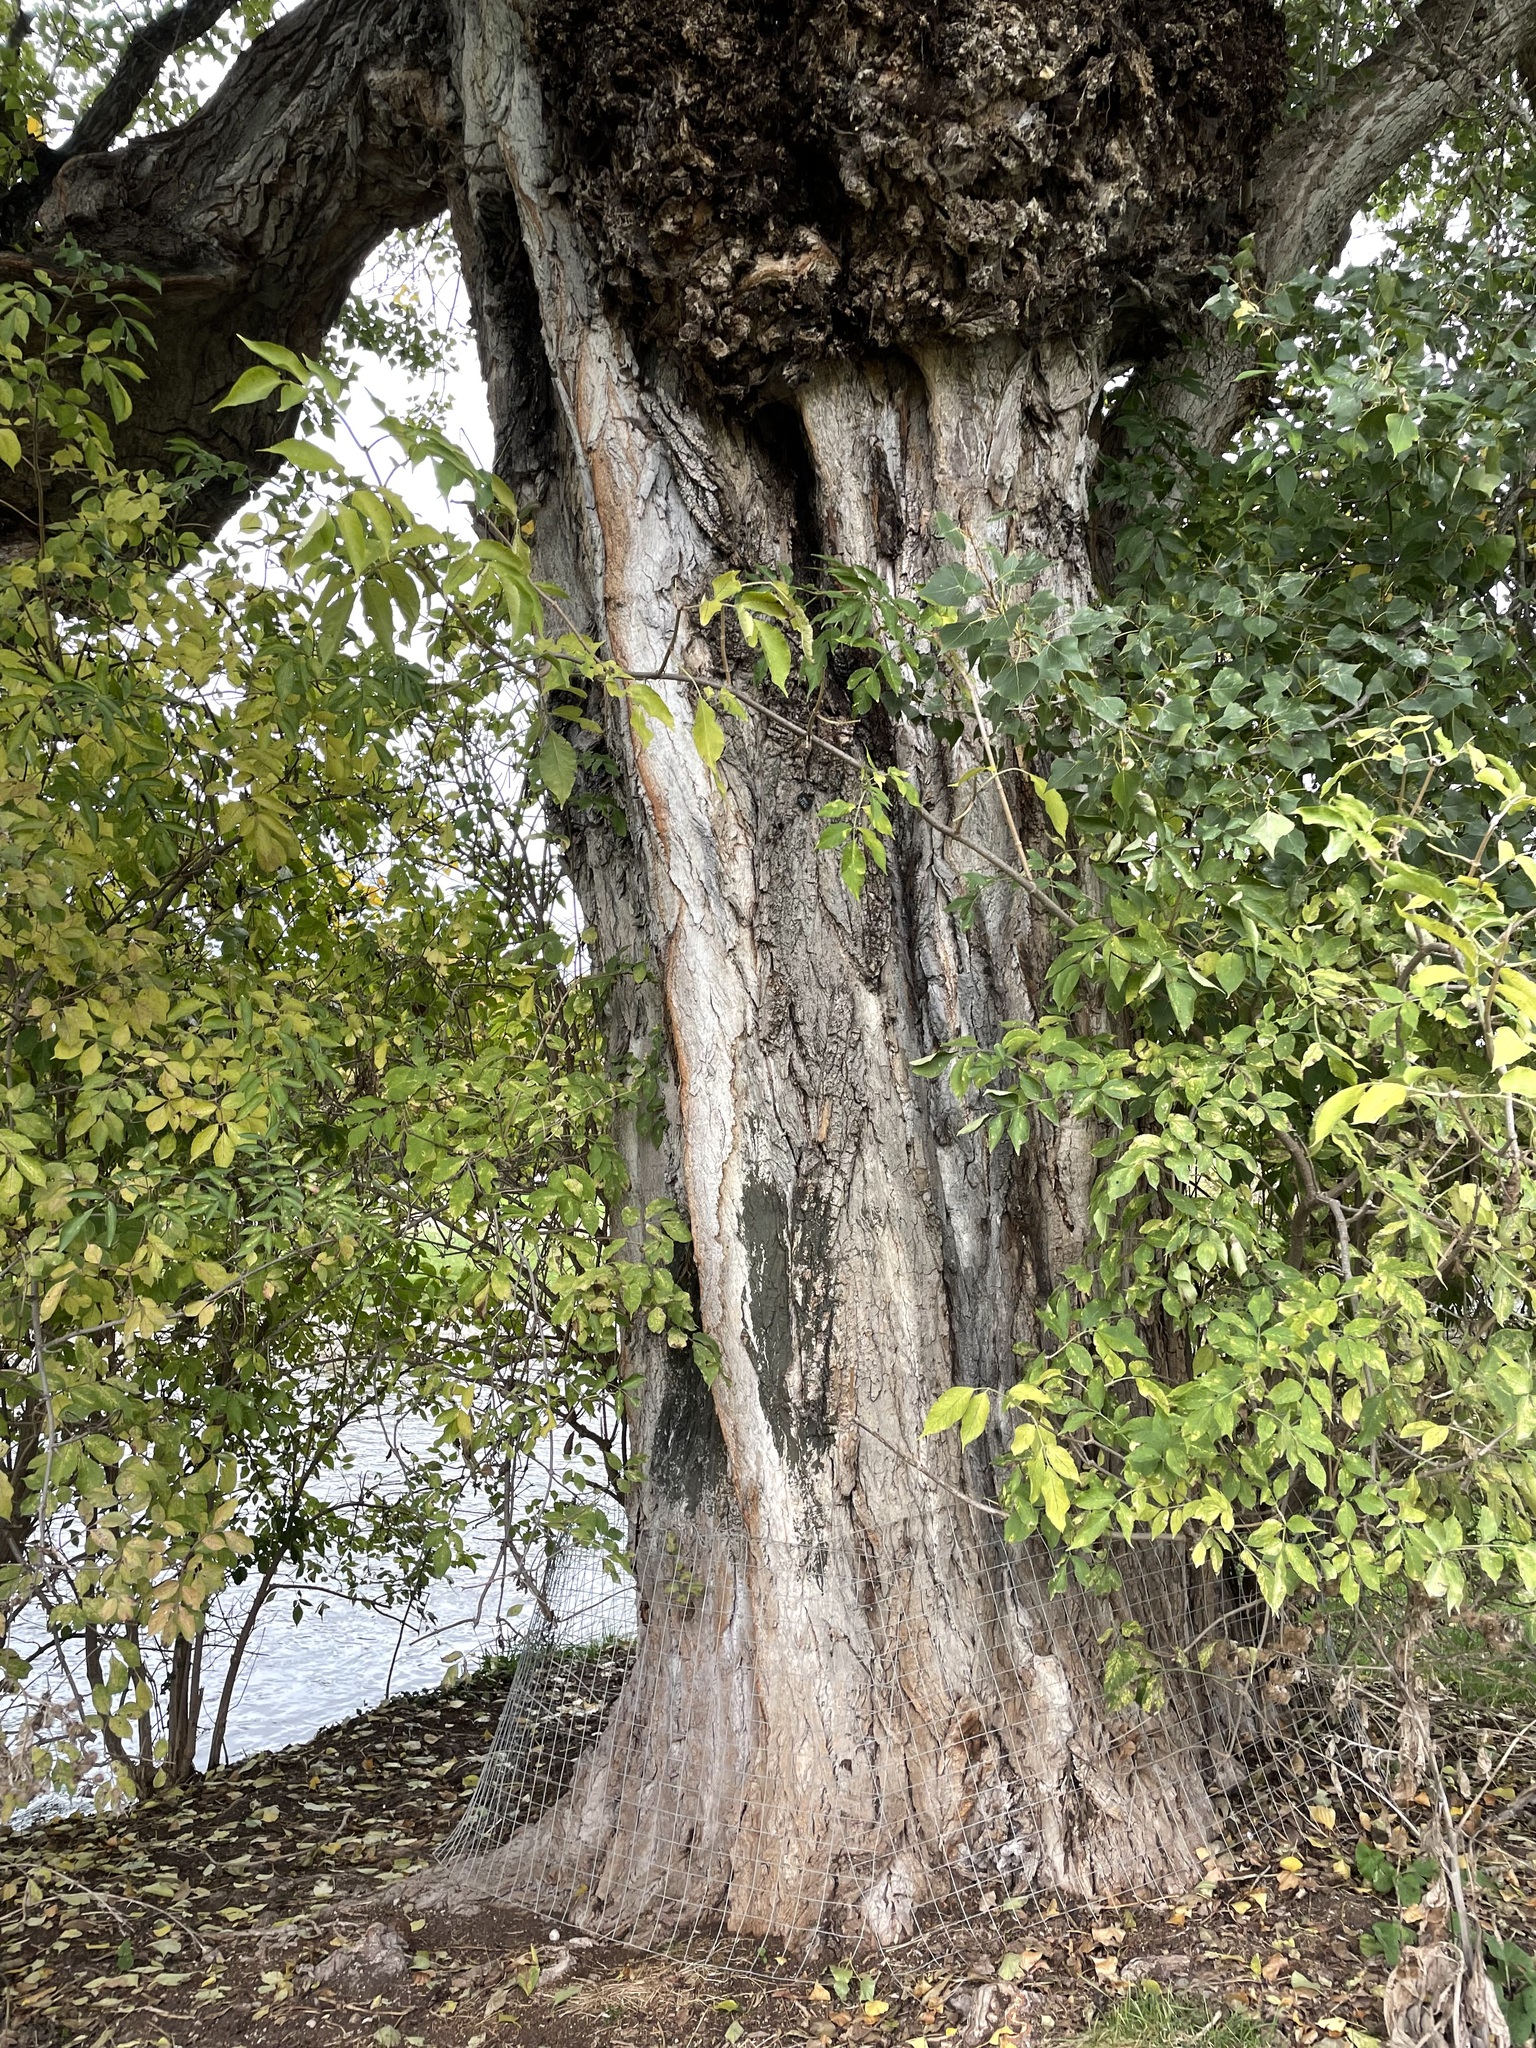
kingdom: Plantae
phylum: Tracheophyta
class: Magnoliopsida
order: Malpighiales
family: Salicaceae
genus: Populus
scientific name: Populus nigra
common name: Black poplar
